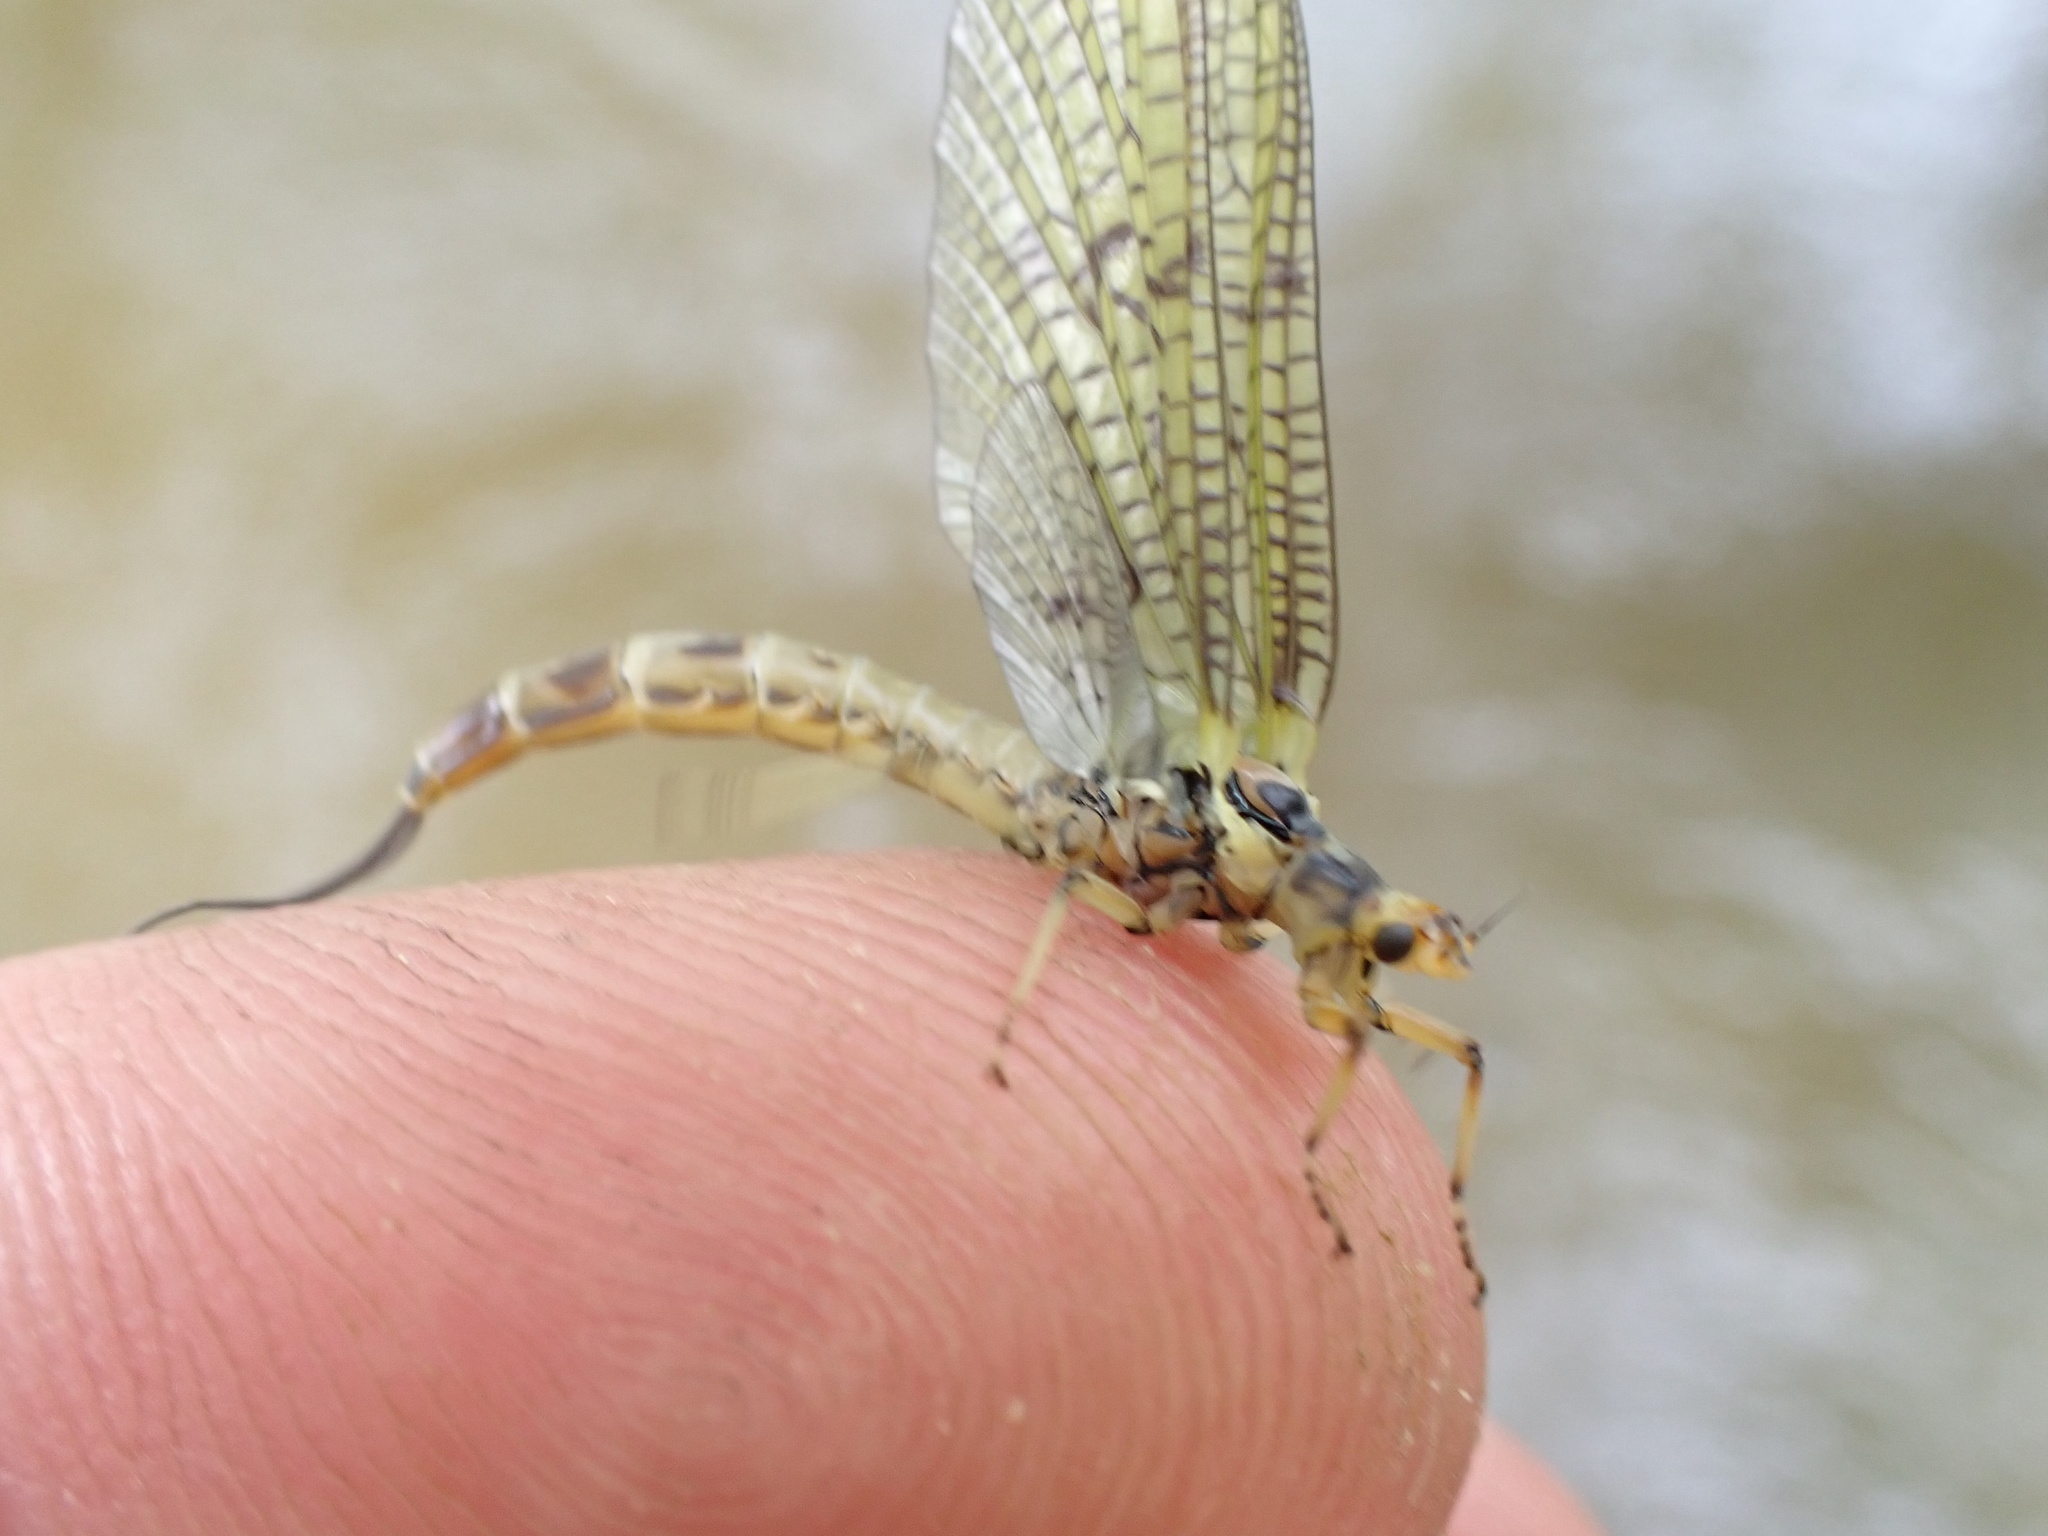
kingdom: Animalia
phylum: Arthropoda
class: Insecta
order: Ephemeroptera
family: Ephemeridae
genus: Ephemera
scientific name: Ephemera danica
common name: Green dun
